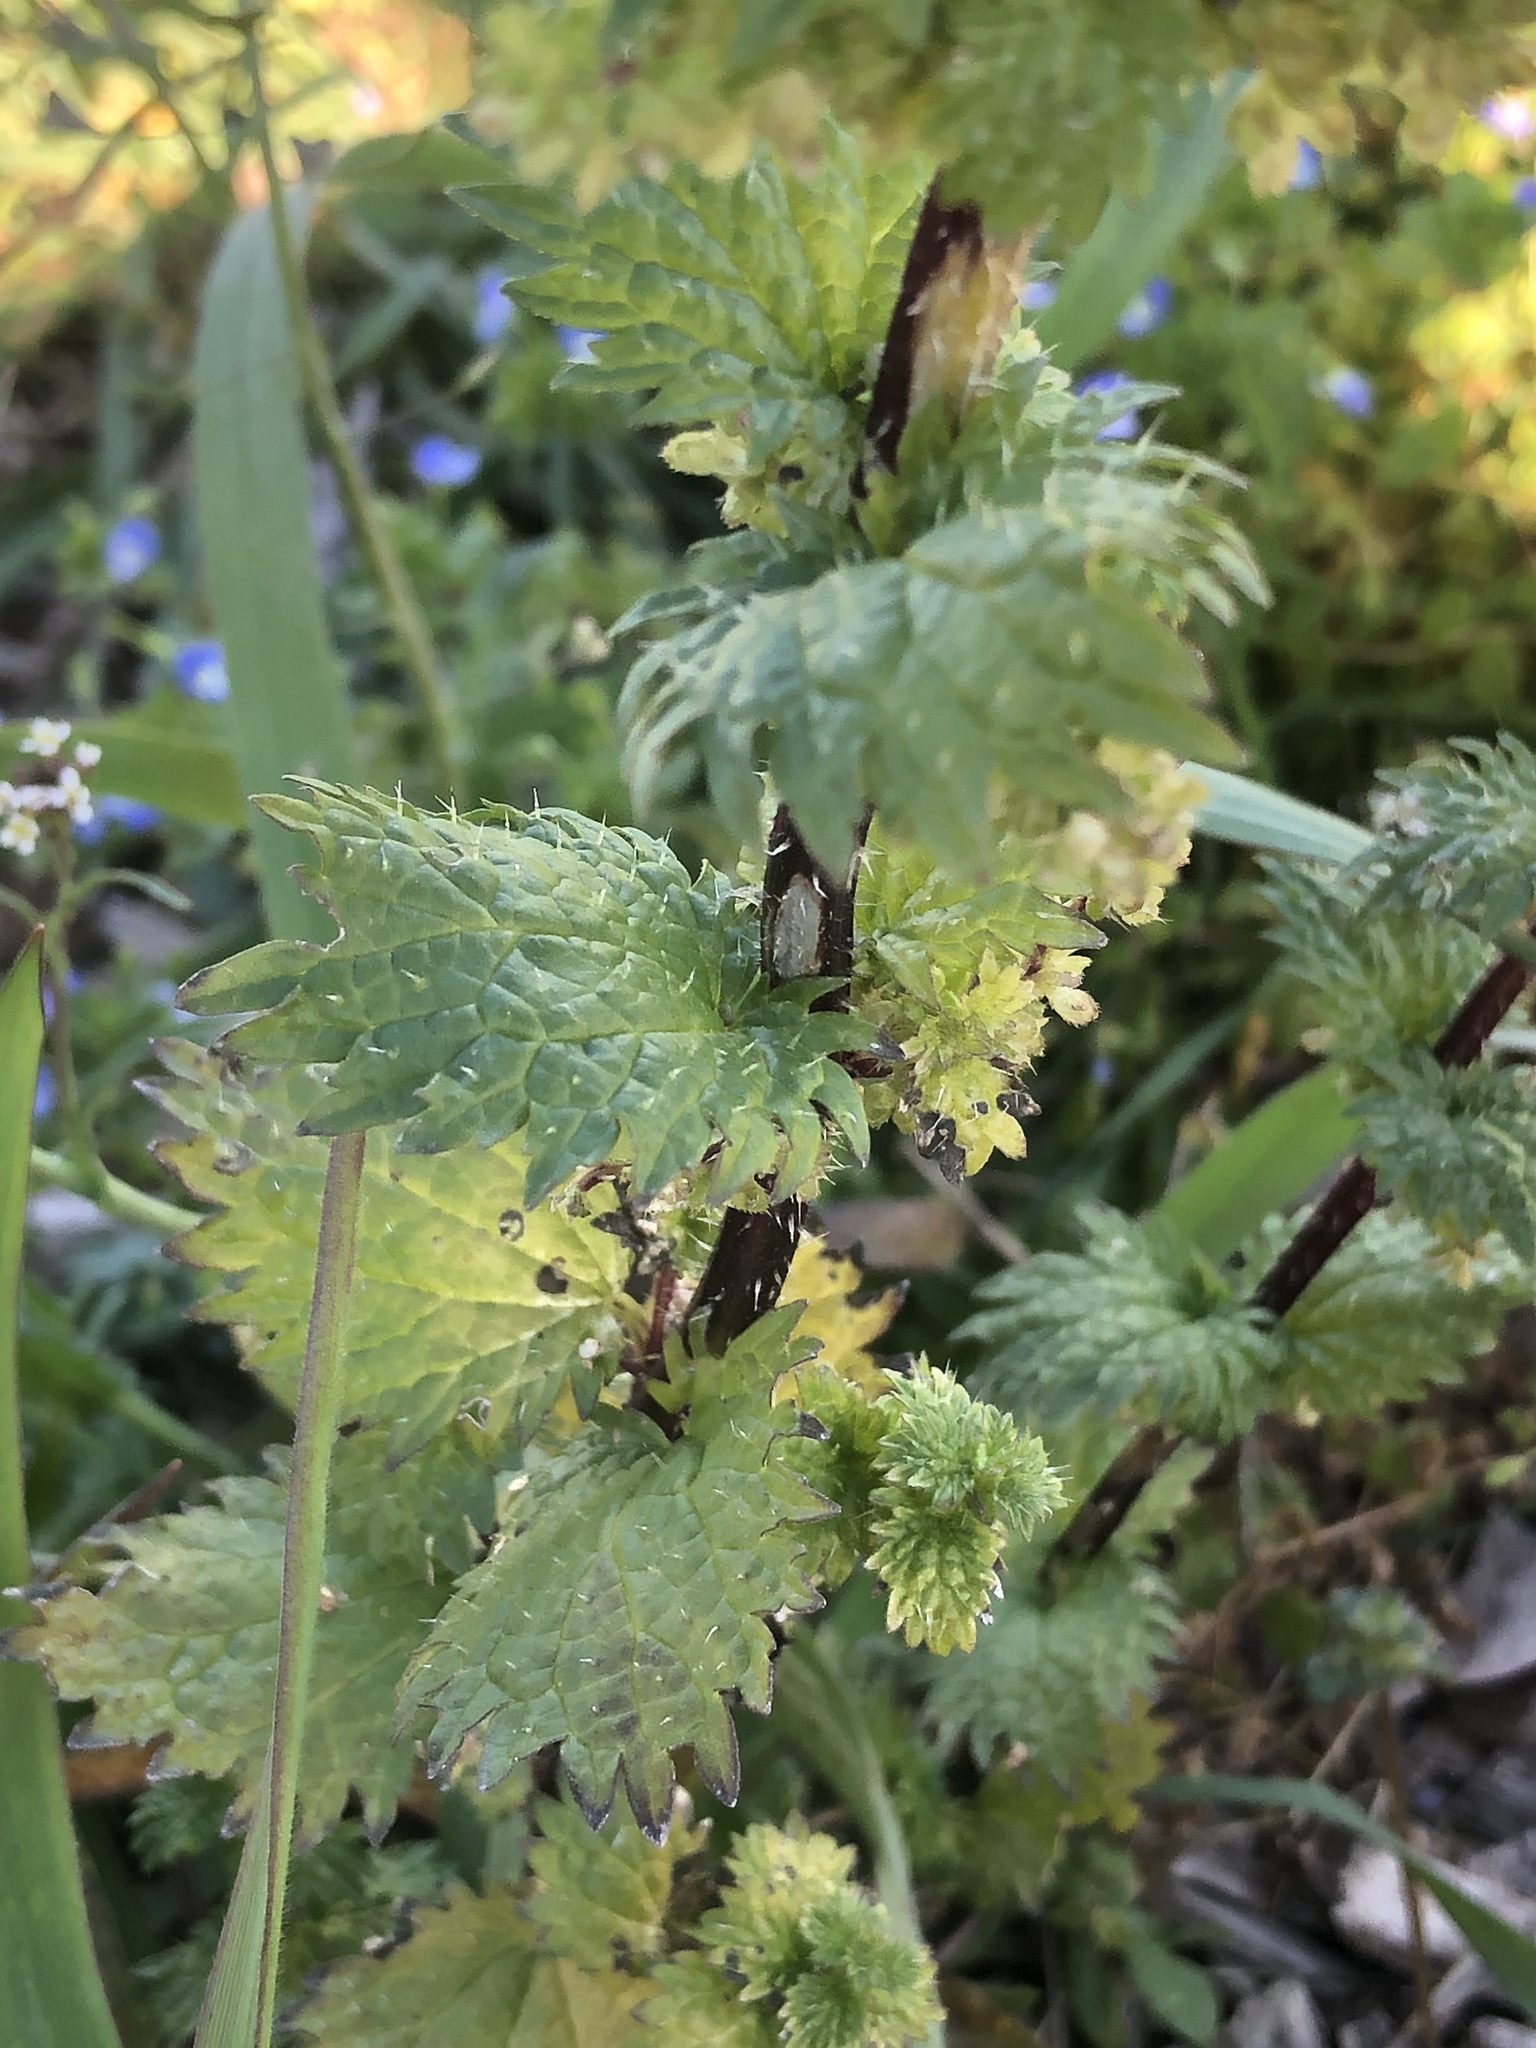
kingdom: Plantae
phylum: Tracheophyta
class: Magnoliopsida
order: Rosales
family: Urticaceae
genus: Urtica
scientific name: Urtica urens
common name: Dwarf nettle
